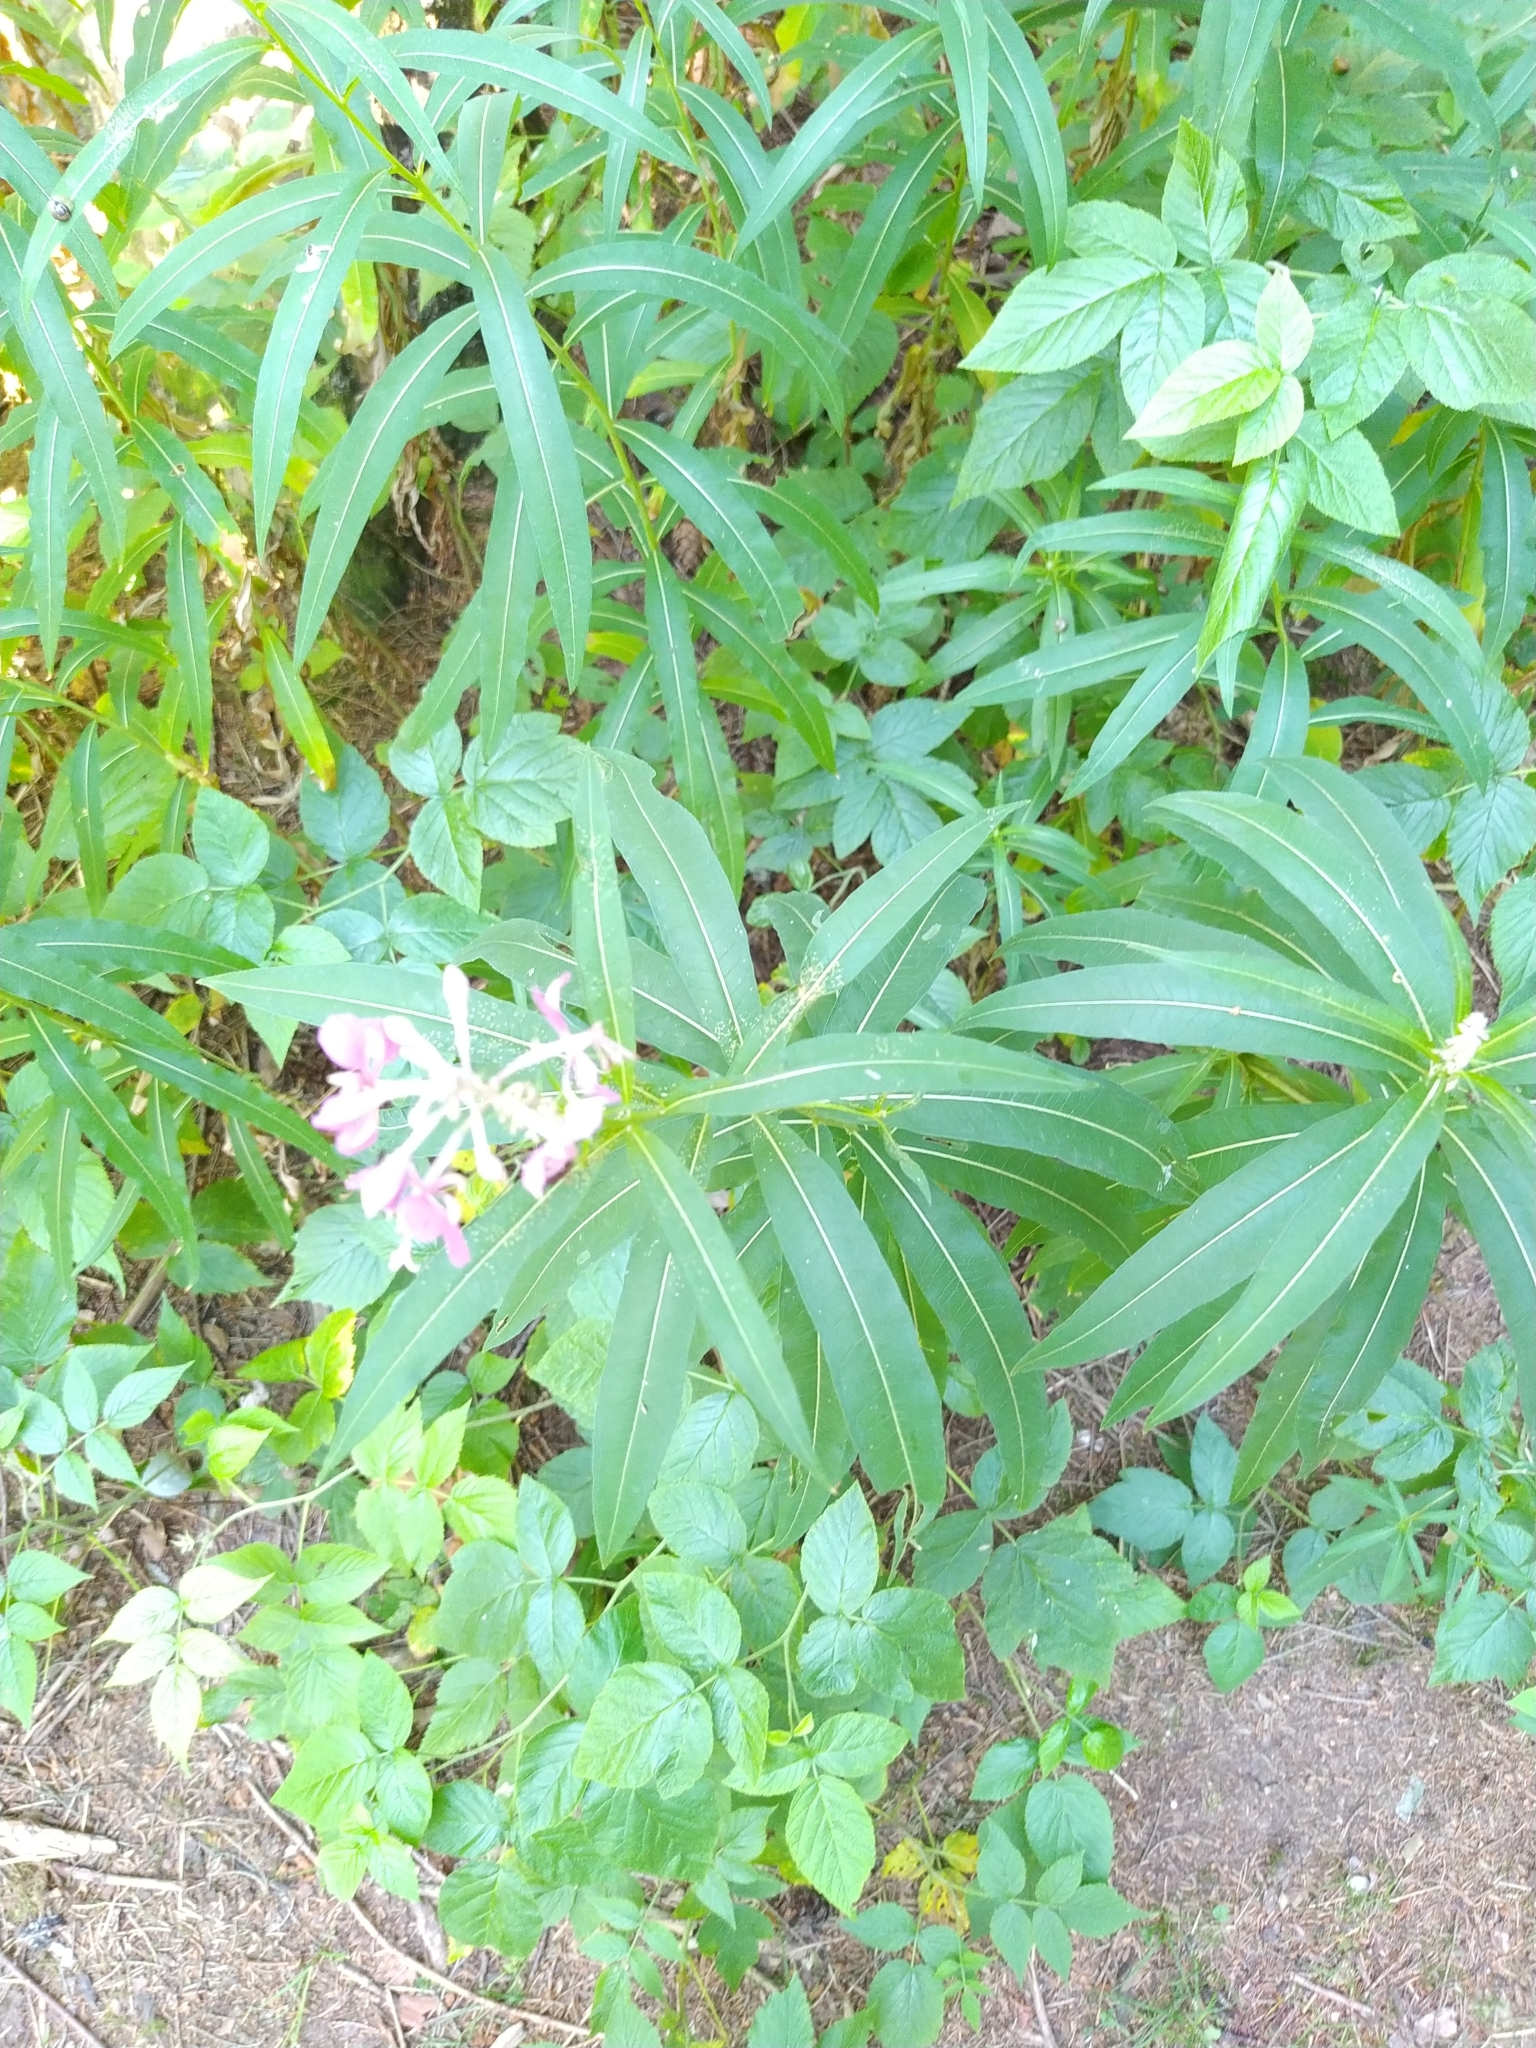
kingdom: Plantae
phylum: Tracheophyta
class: Magnoliopsida
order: Myrtales
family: Onagraceae
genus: Chamaenerion
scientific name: Chamaenerion angustifolium
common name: Fireweed
